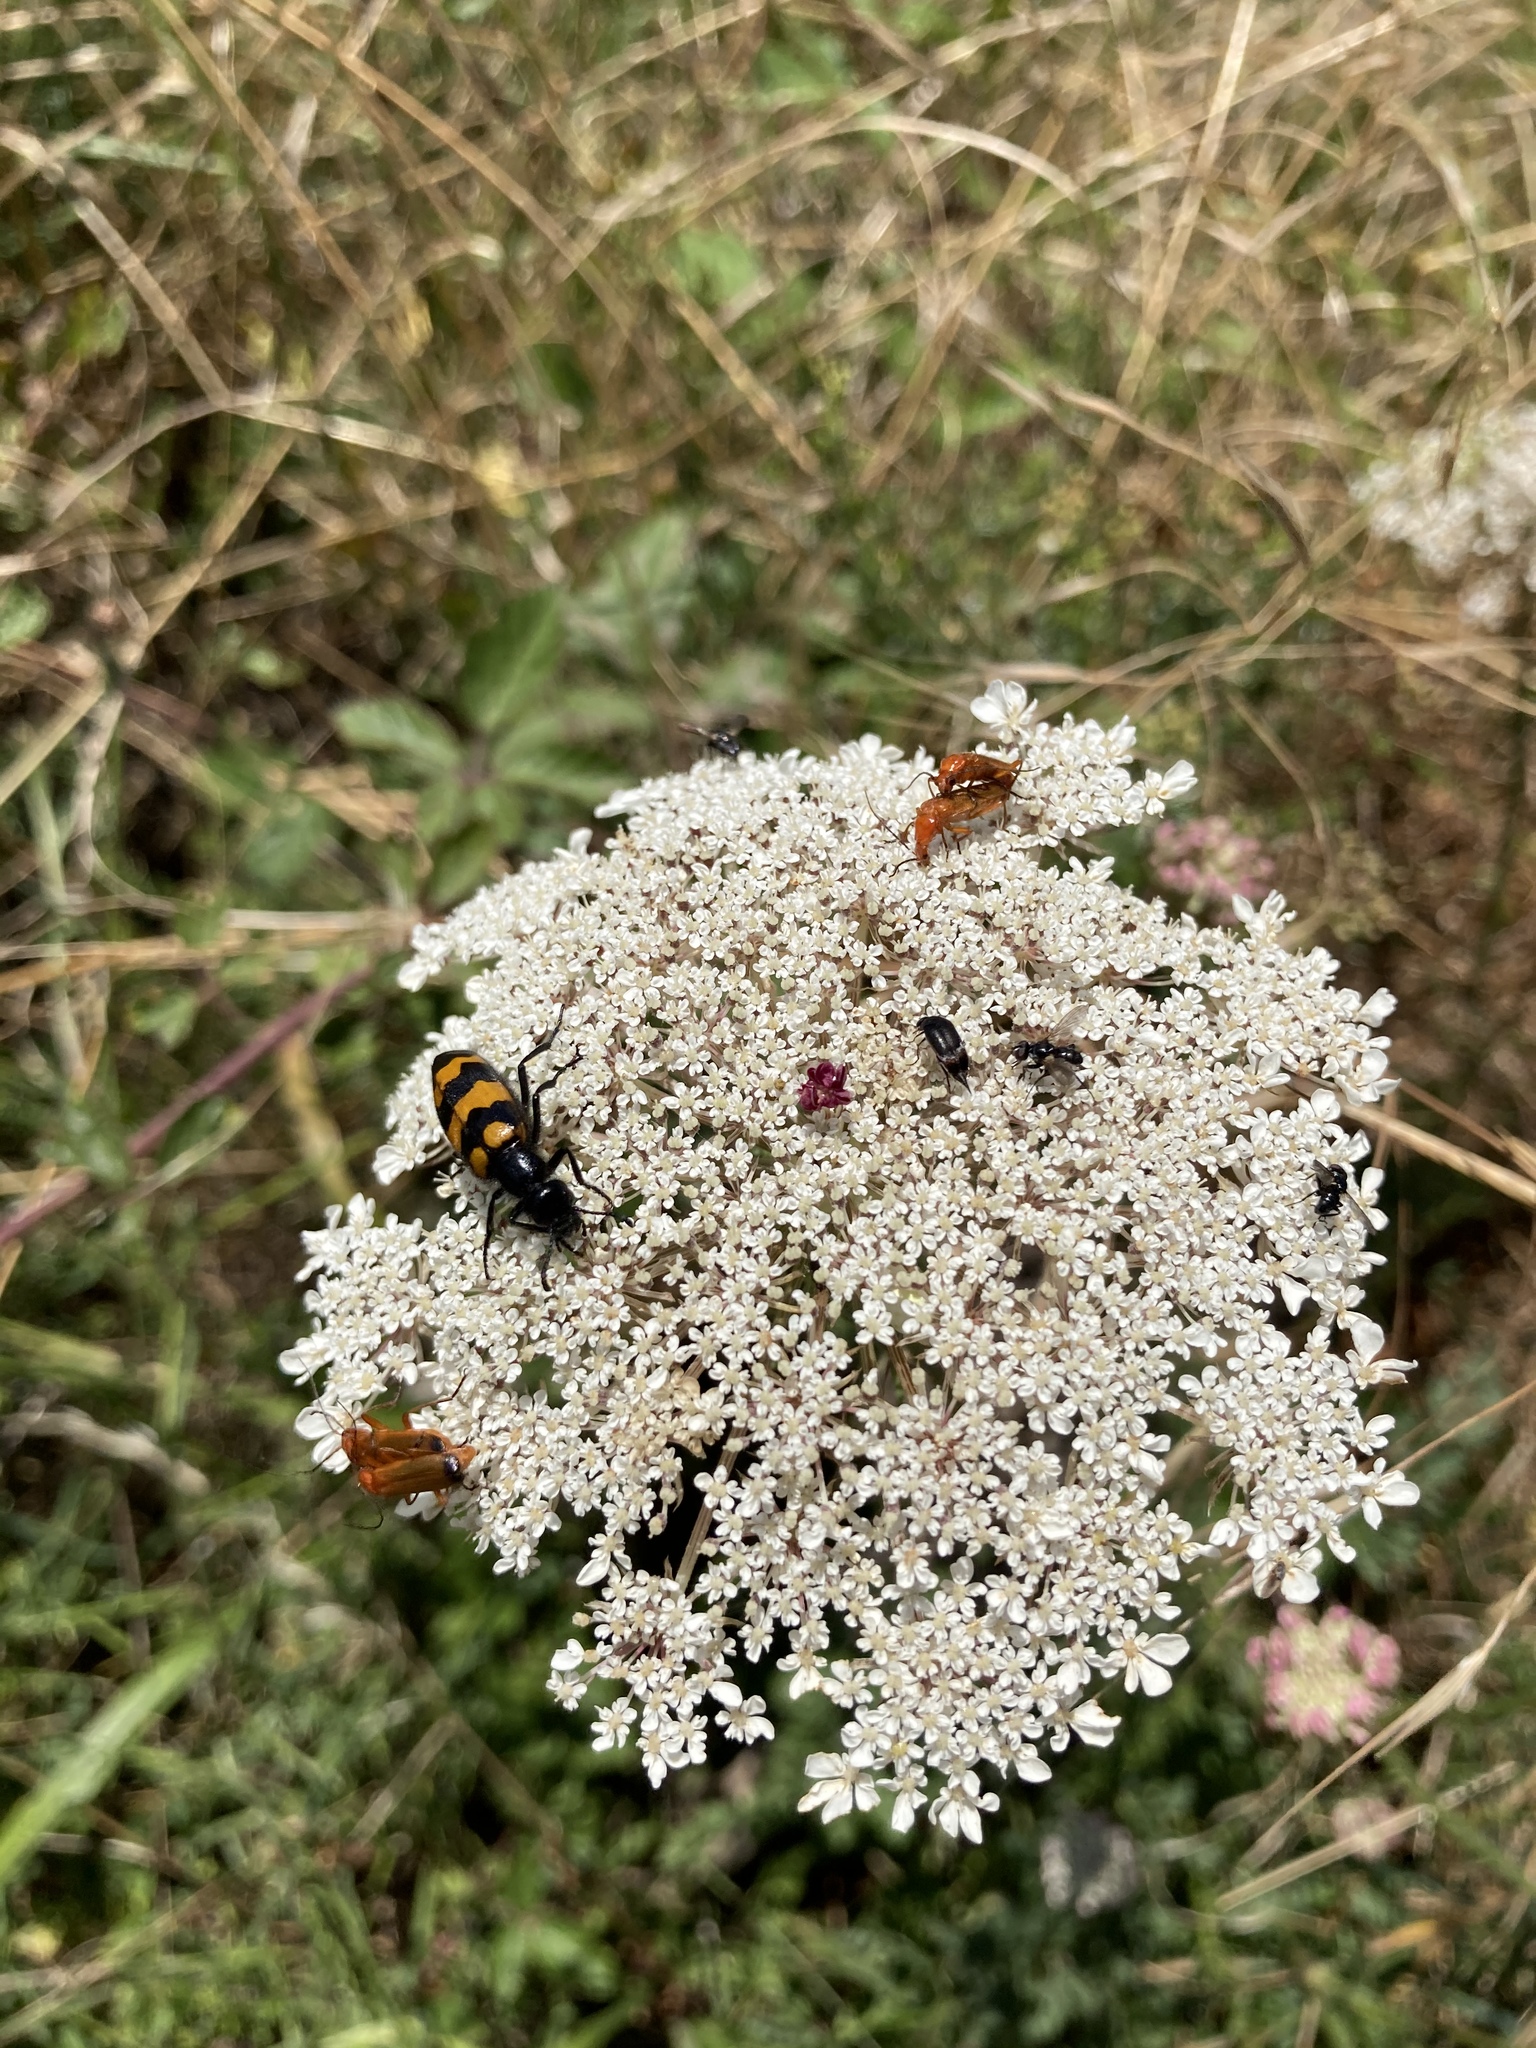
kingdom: Animalia
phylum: Arthropoda
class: Insecta
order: Coleoptera
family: Meloidae
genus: Mylabris
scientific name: Mylabris variabilis
